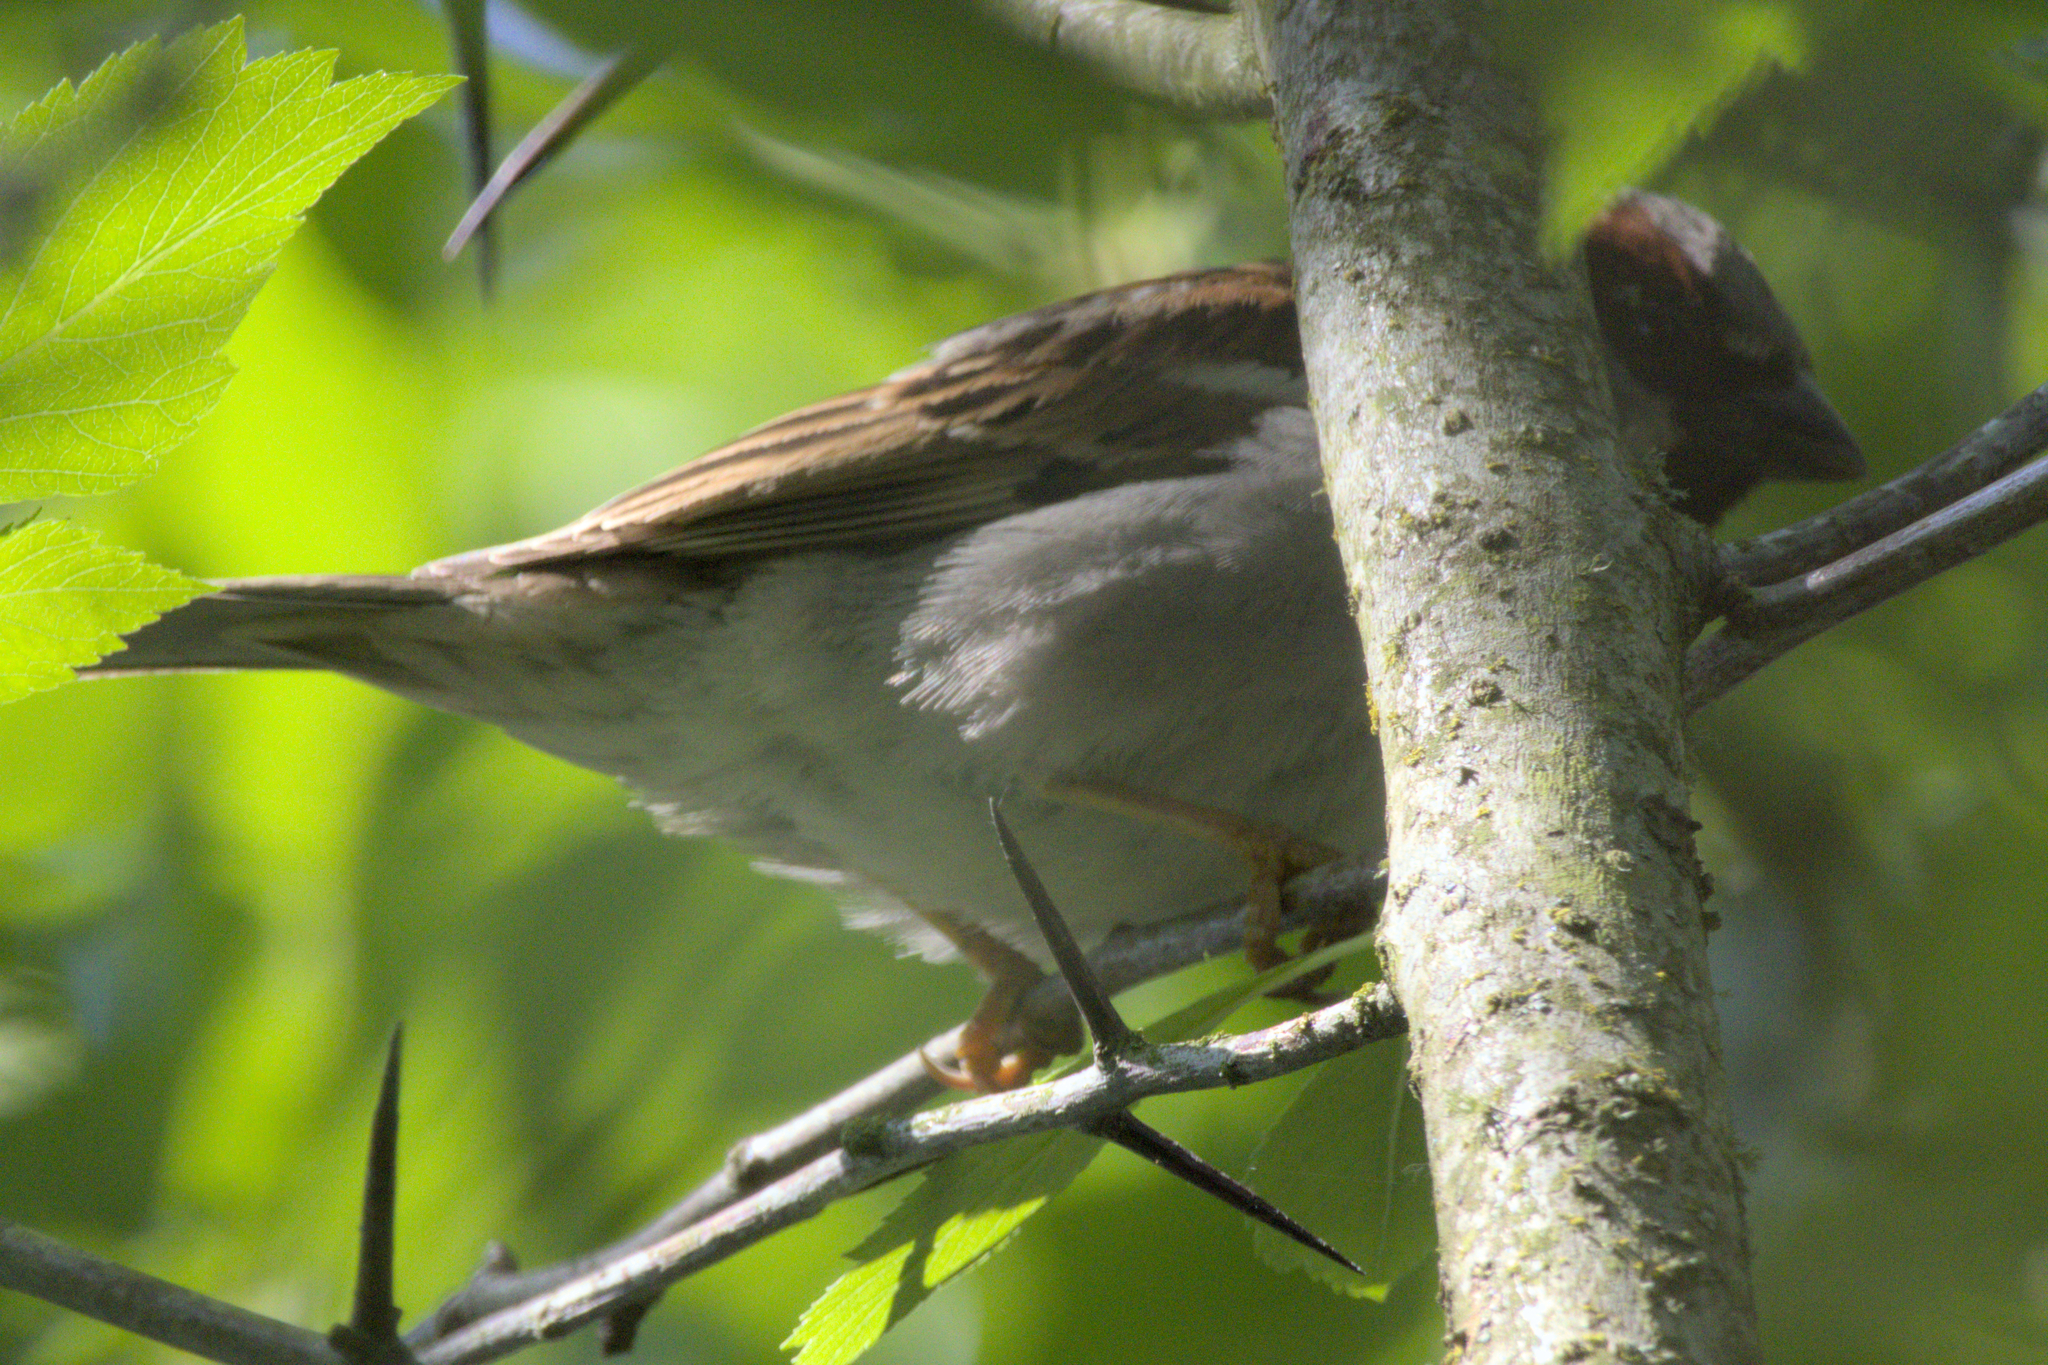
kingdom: Animalia
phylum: Chordata
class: Aves
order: Passeriformes
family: Passeridae
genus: Passer
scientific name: Passer domesticus
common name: House sparrow
